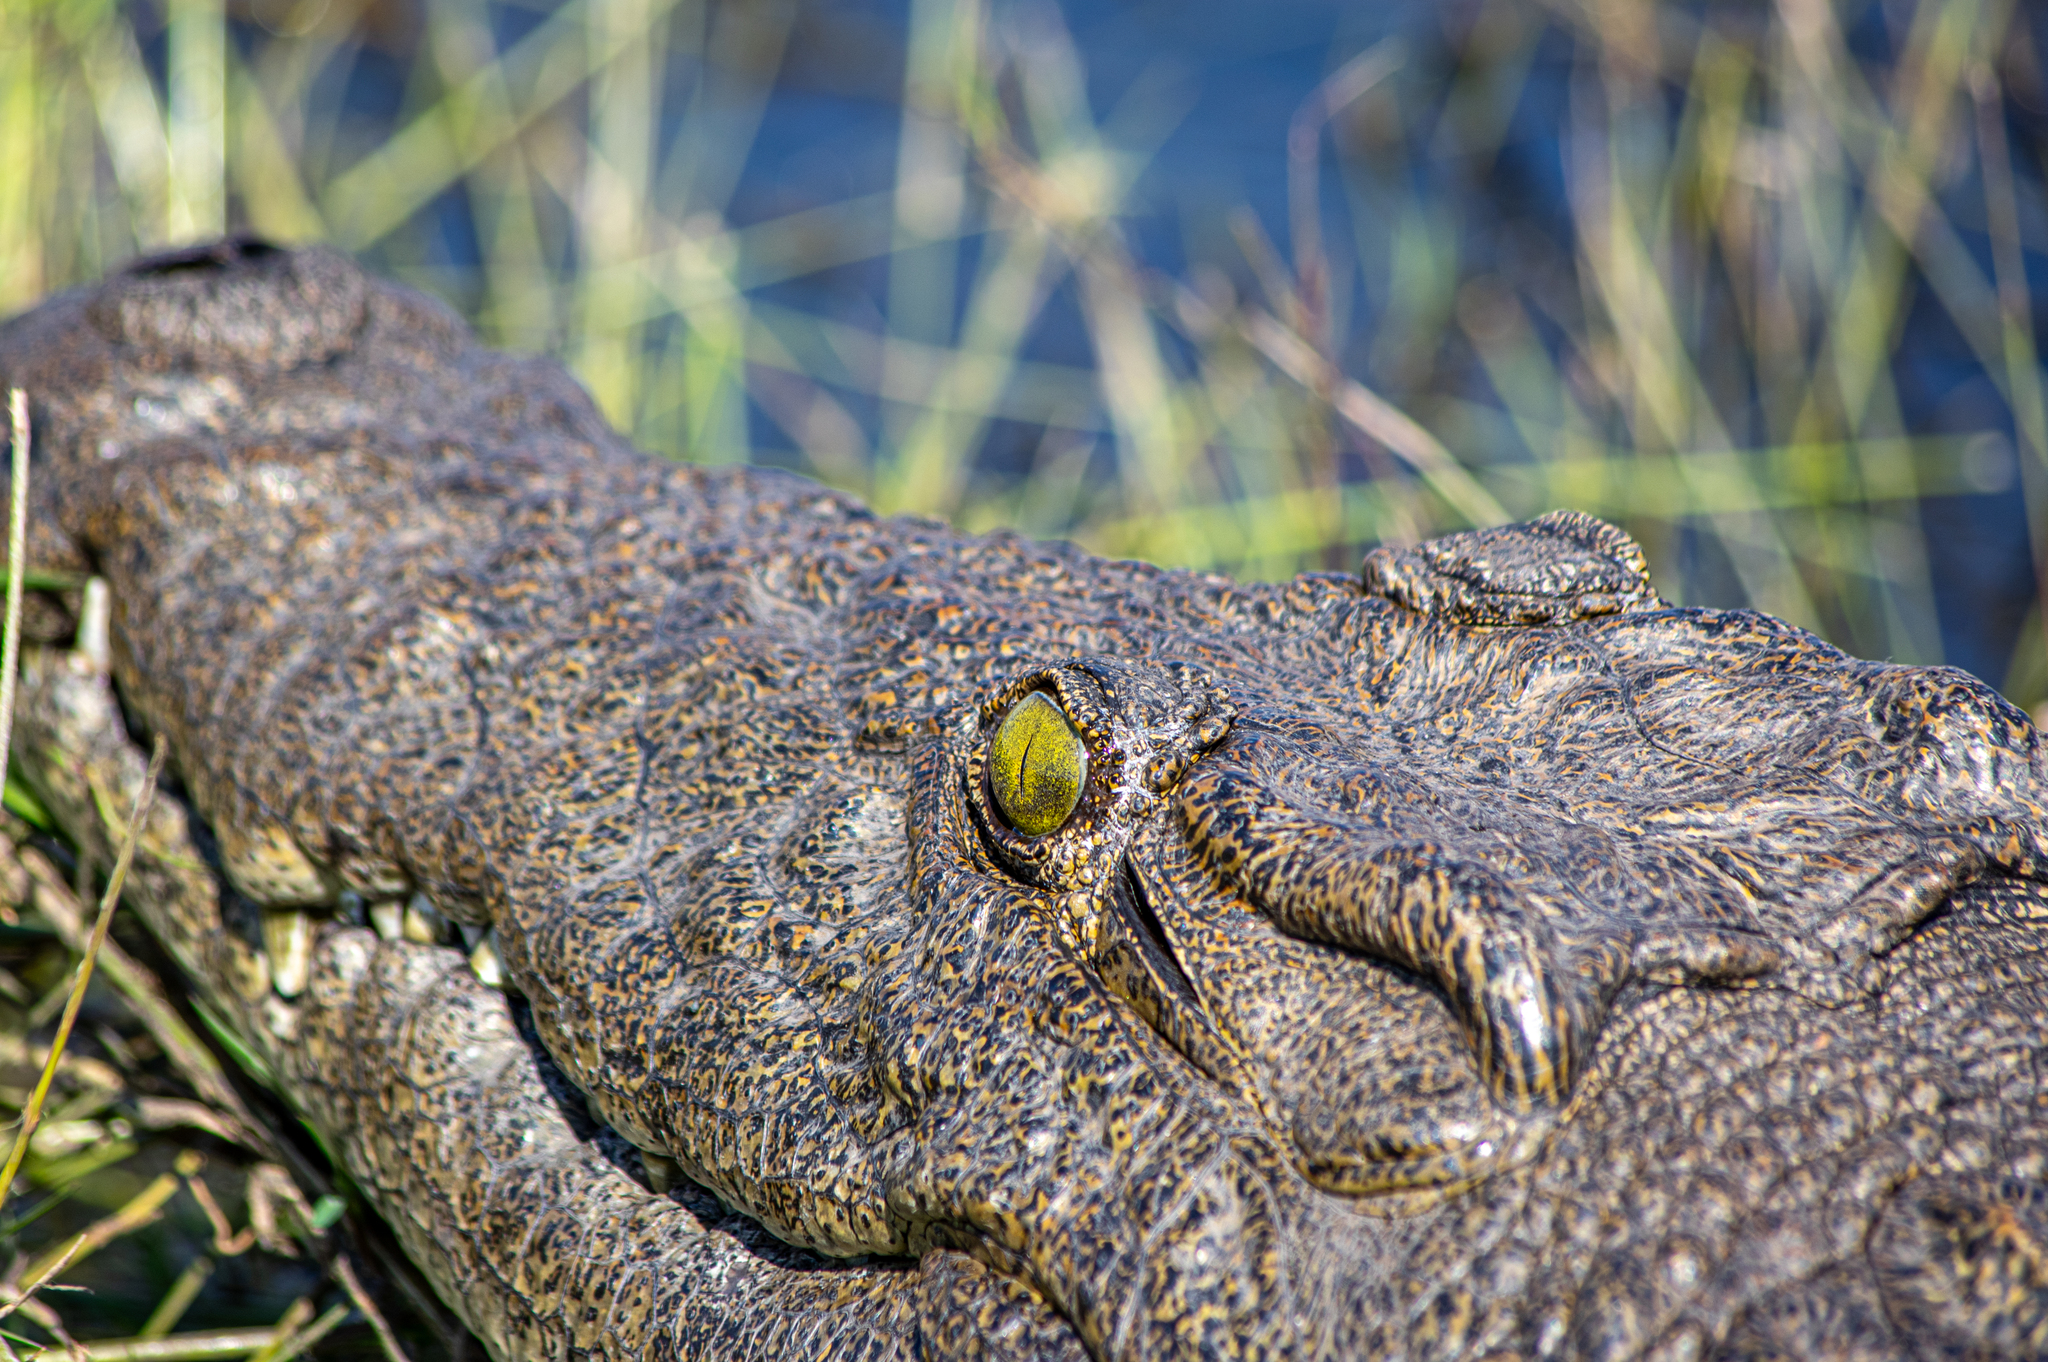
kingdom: Animalia
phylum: Chordata
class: Crocodylia
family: Crocodylidae
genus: Crocodylus
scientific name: Crocodylus niloticus
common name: Nile crocodile
